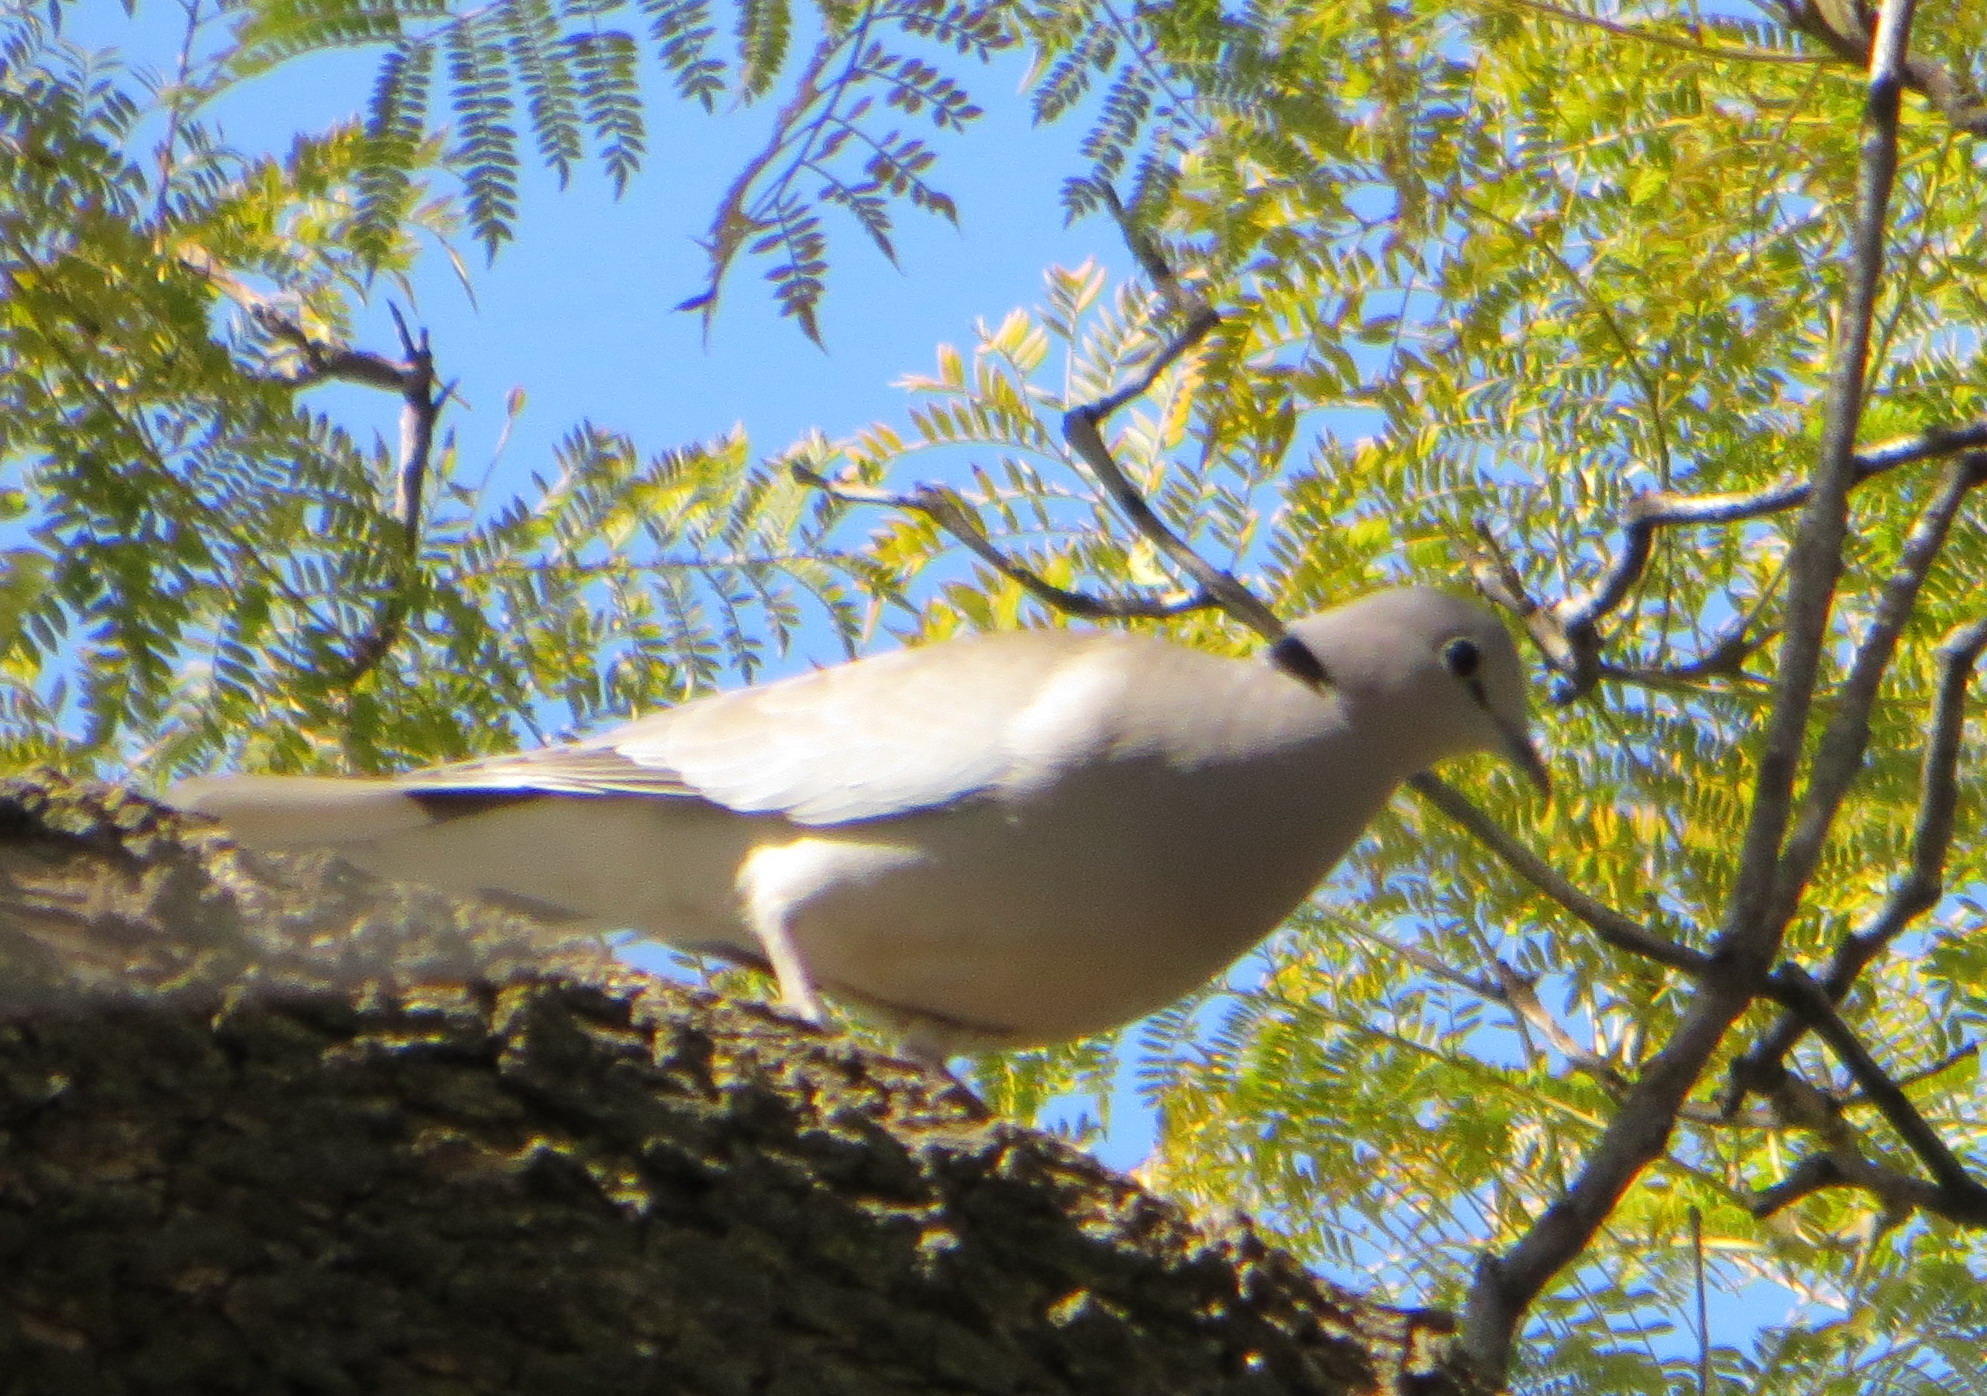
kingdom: Animalia
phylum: Chordata
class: Aves
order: Columbiformes
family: Columbidae
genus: Streptopelia
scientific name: Streptopelia capicola
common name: Ring-necked dove
